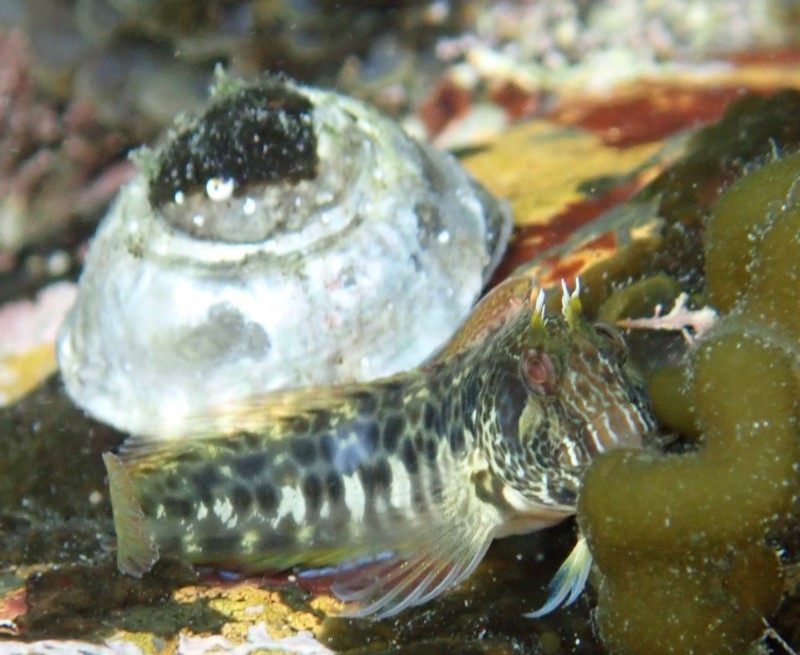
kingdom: Animalia
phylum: Chordata
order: Perciformes
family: Blenniidae
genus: Parablennius
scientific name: Parablennius intermedius
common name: Horned blenny
